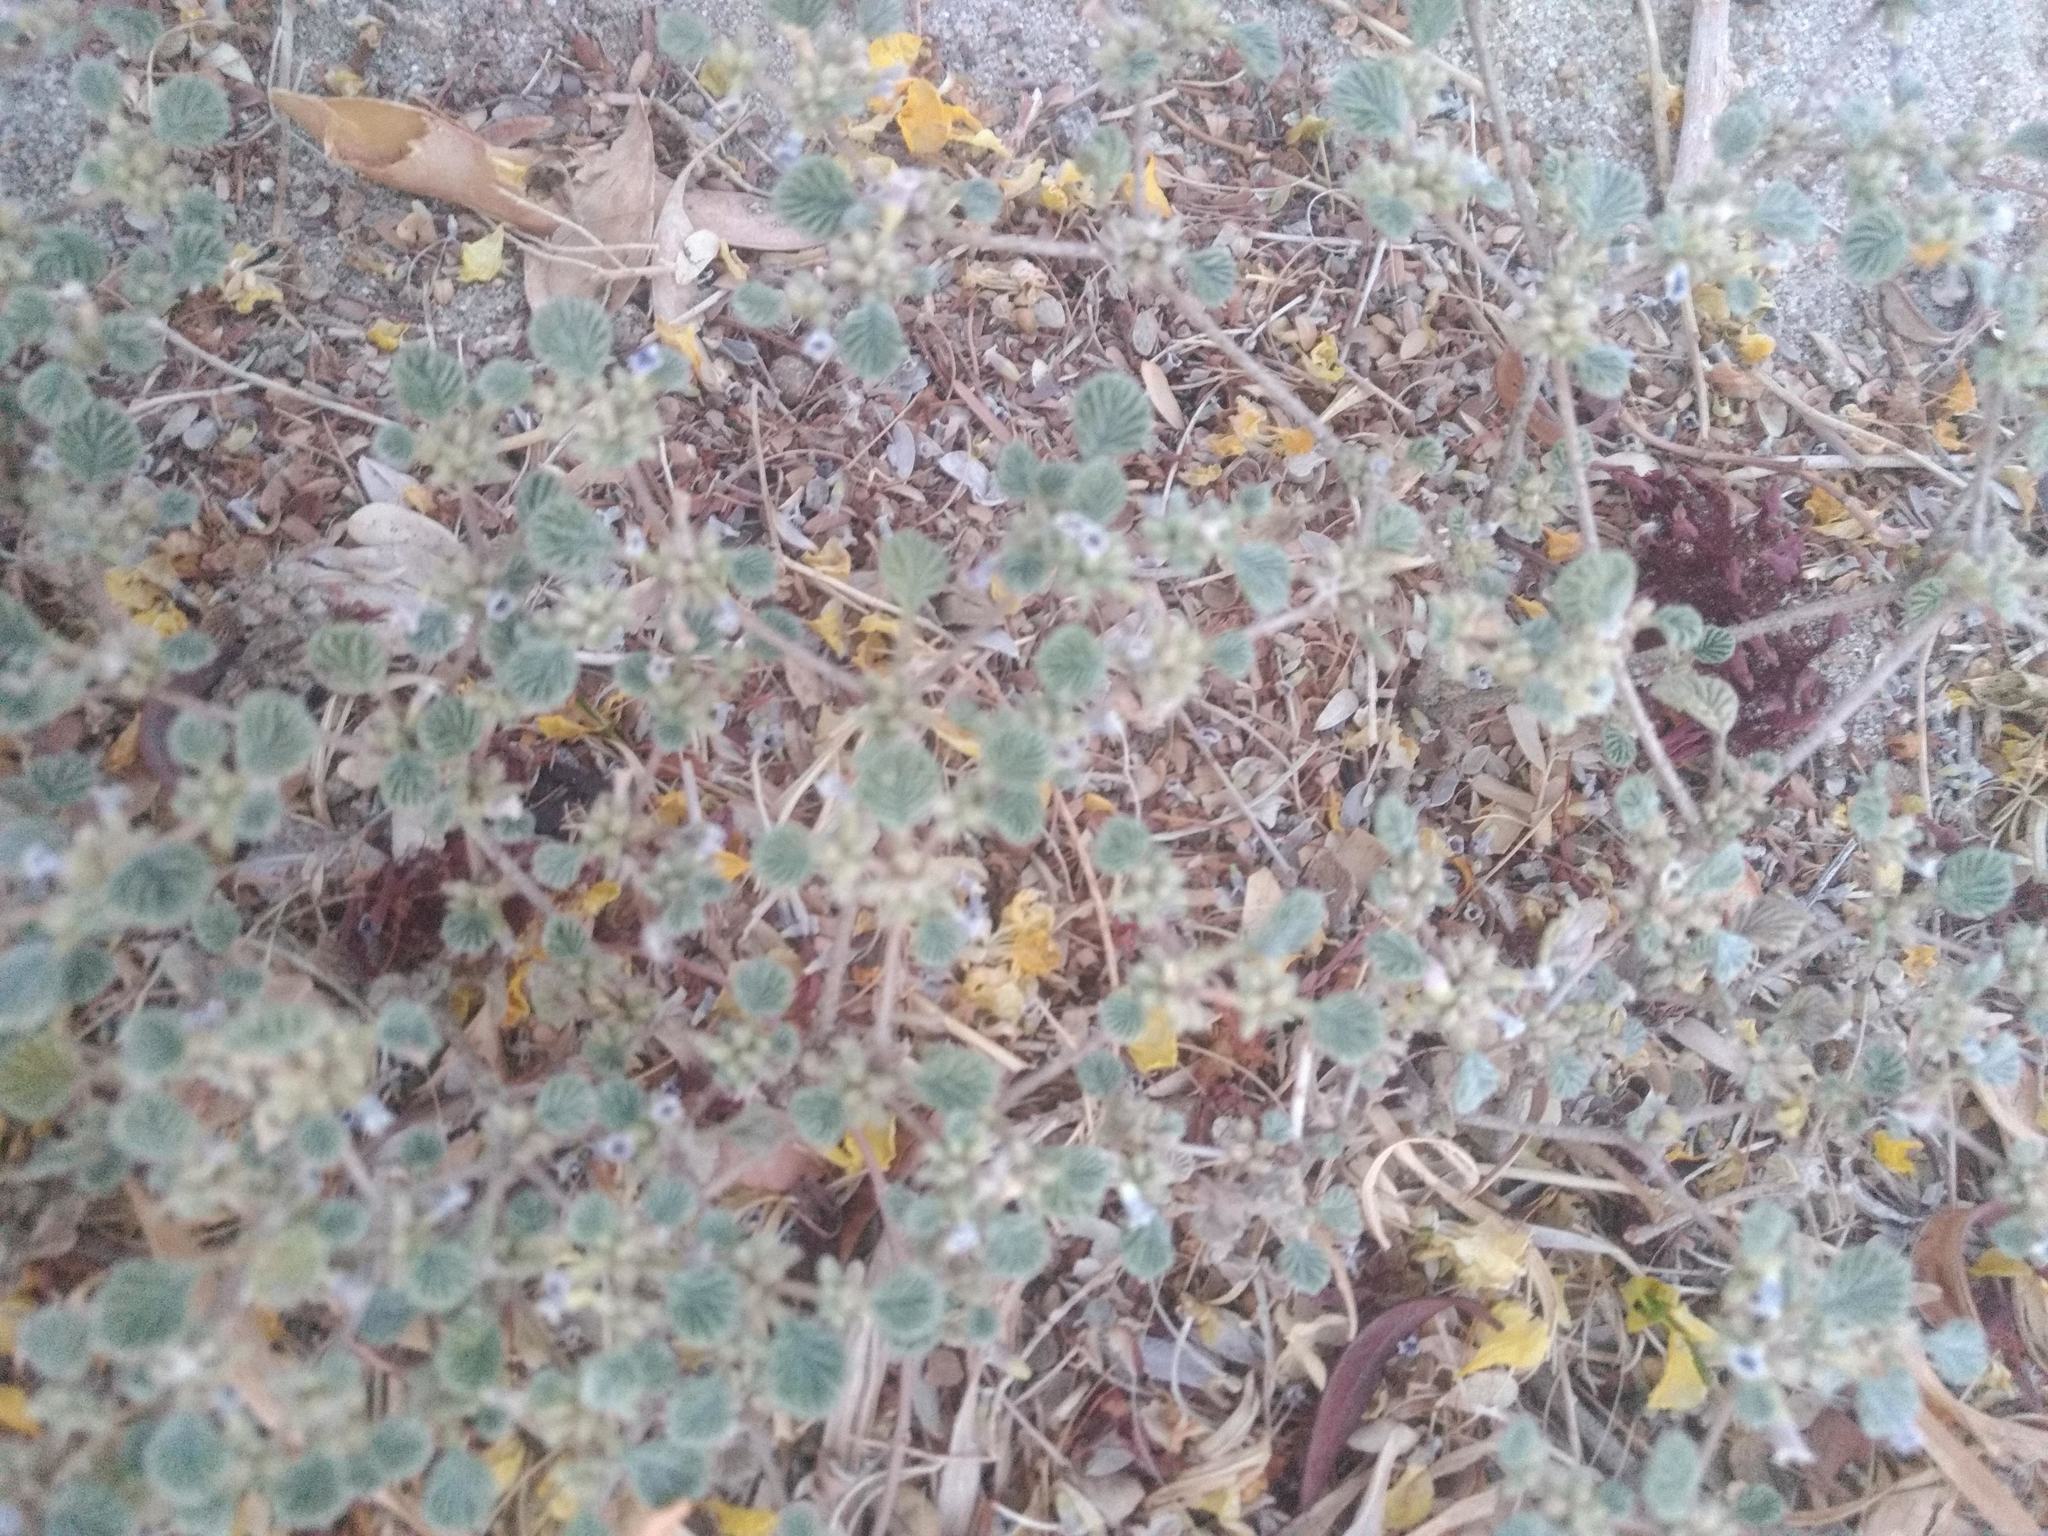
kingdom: Plantae
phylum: Tracheophyta
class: Magnoliopsida
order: Boraginales
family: Ehretiaceae
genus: Tiquilia
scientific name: Tiquilia plicata
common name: Fan-leaf tiquilia
